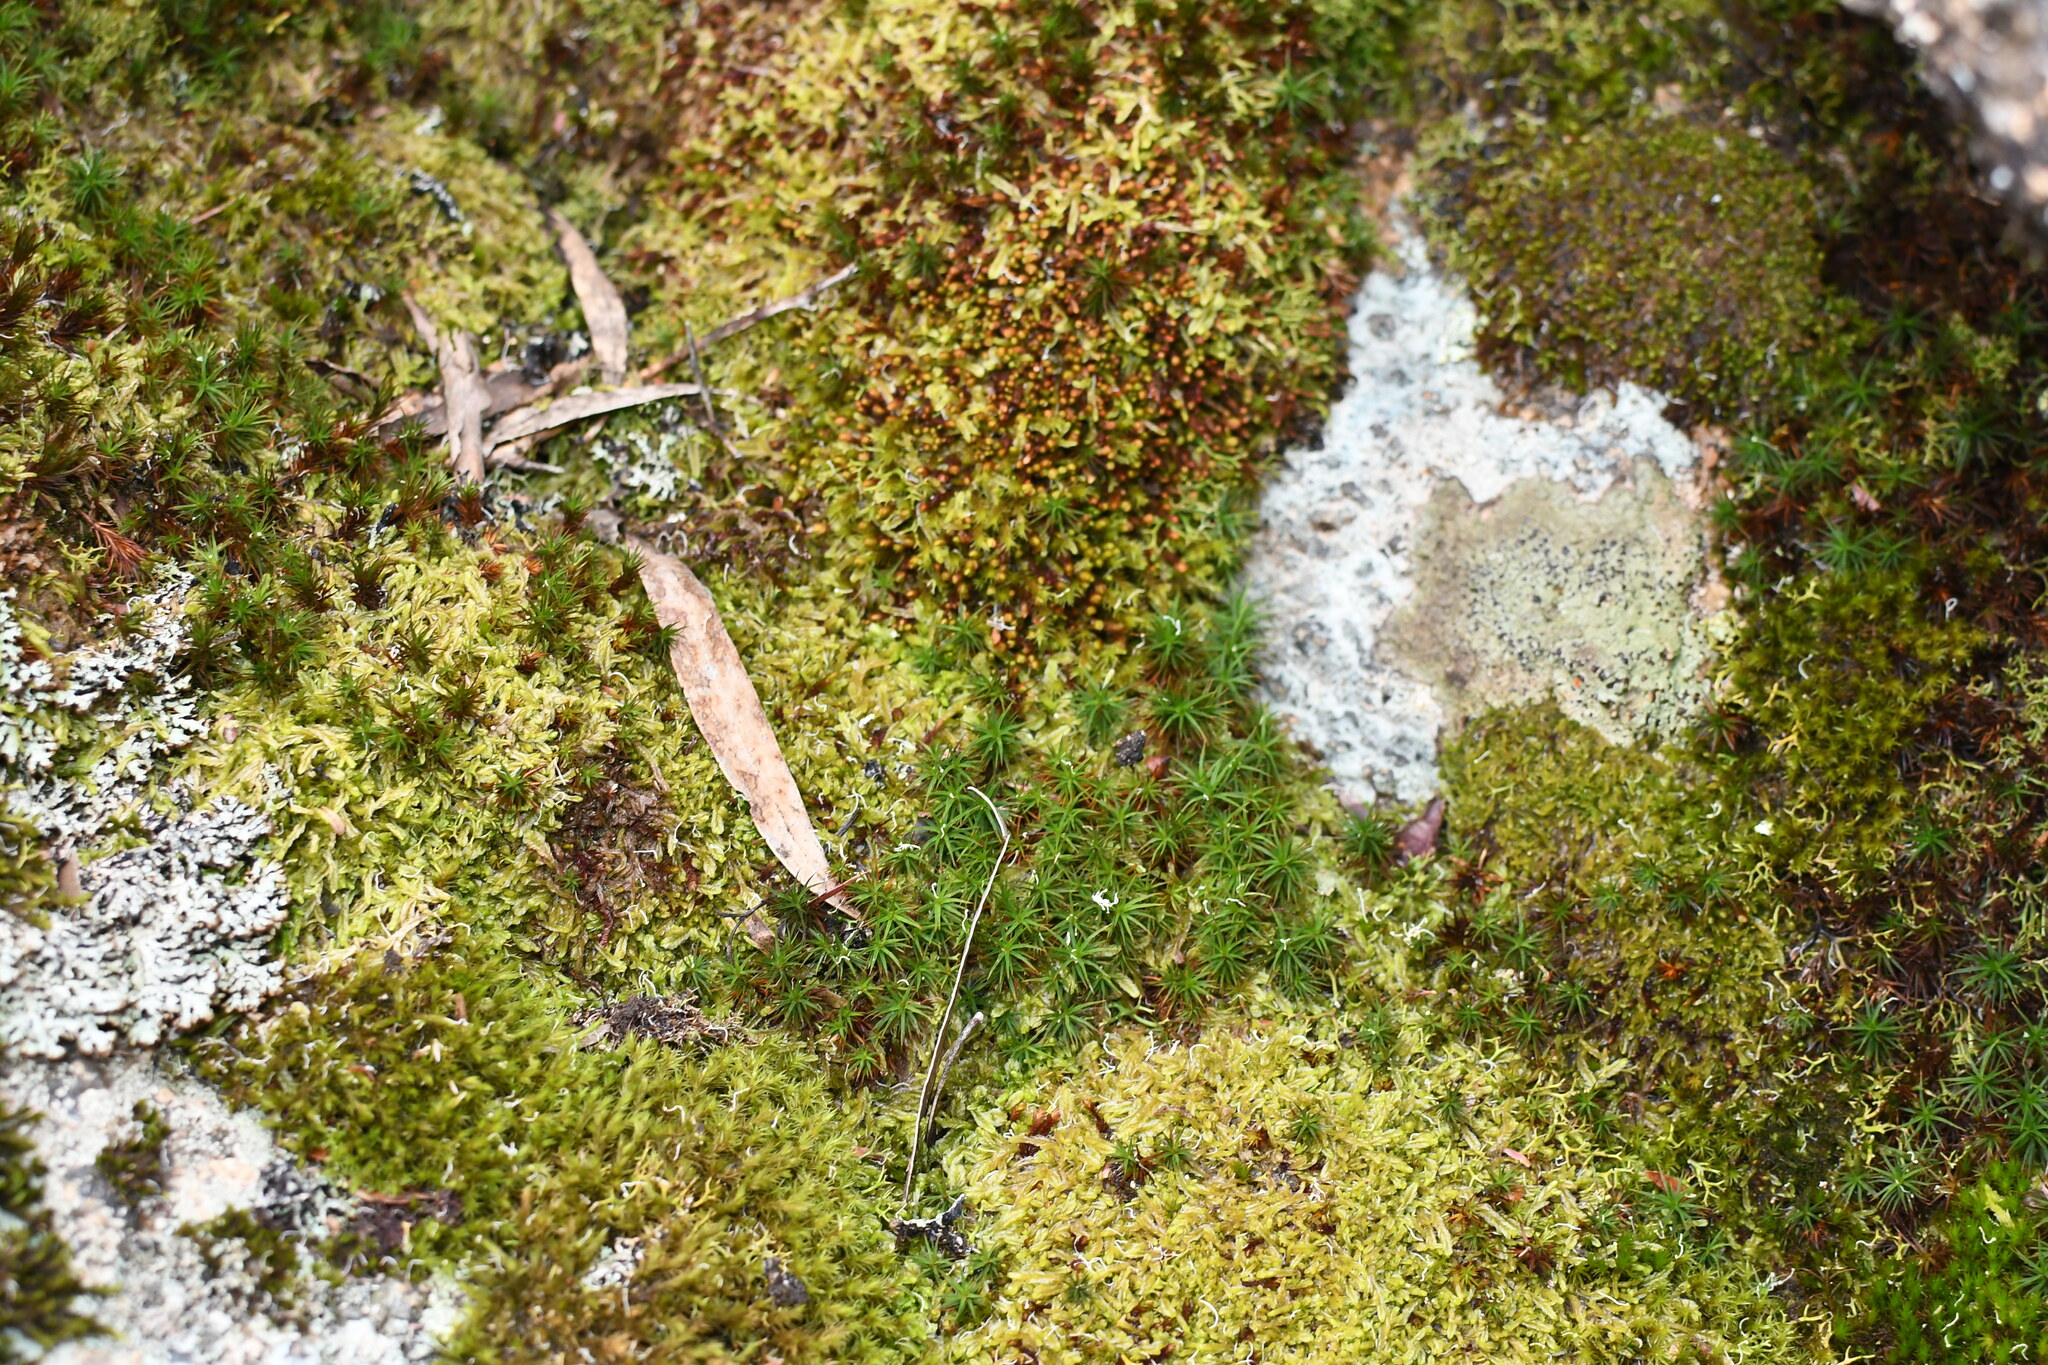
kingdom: Plantae
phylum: Bryophyta
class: Polytrichopsida
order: Polytrichales
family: Polytrichaceae
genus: Polytrichastrum
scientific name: Polytrichastrum alpinum
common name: Alpine haircap
